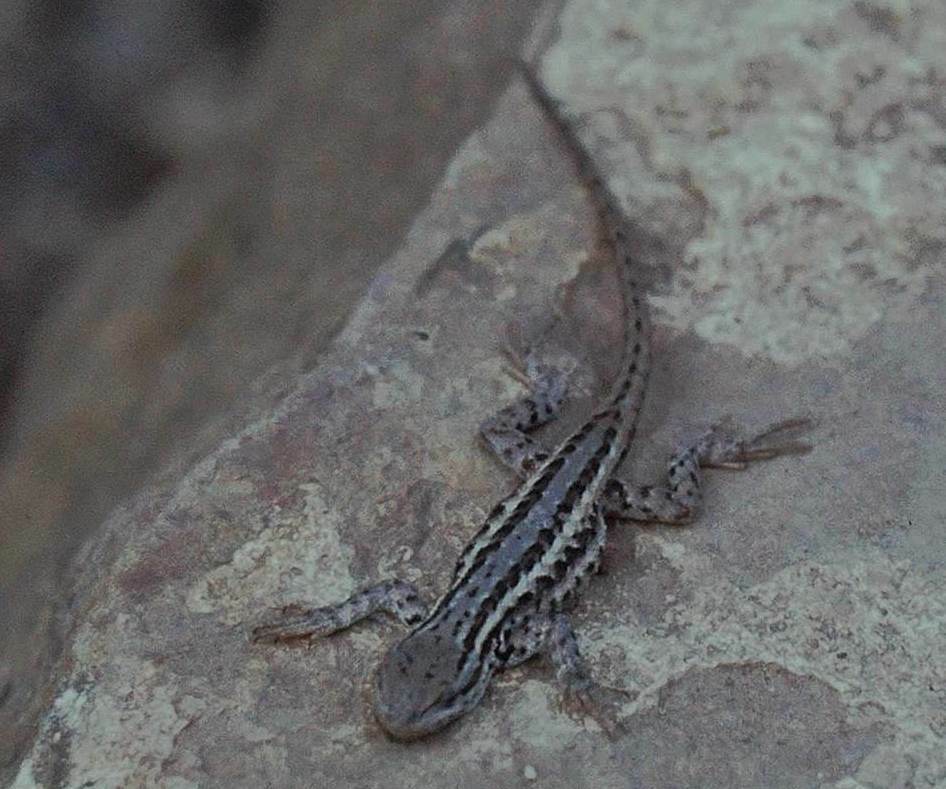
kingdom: Animalia
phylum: Chordata
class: Squamata
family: Phrynosomatidae
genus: Sceloporus
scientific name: Sceloporus graciosus
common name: Sagebrush lizard
